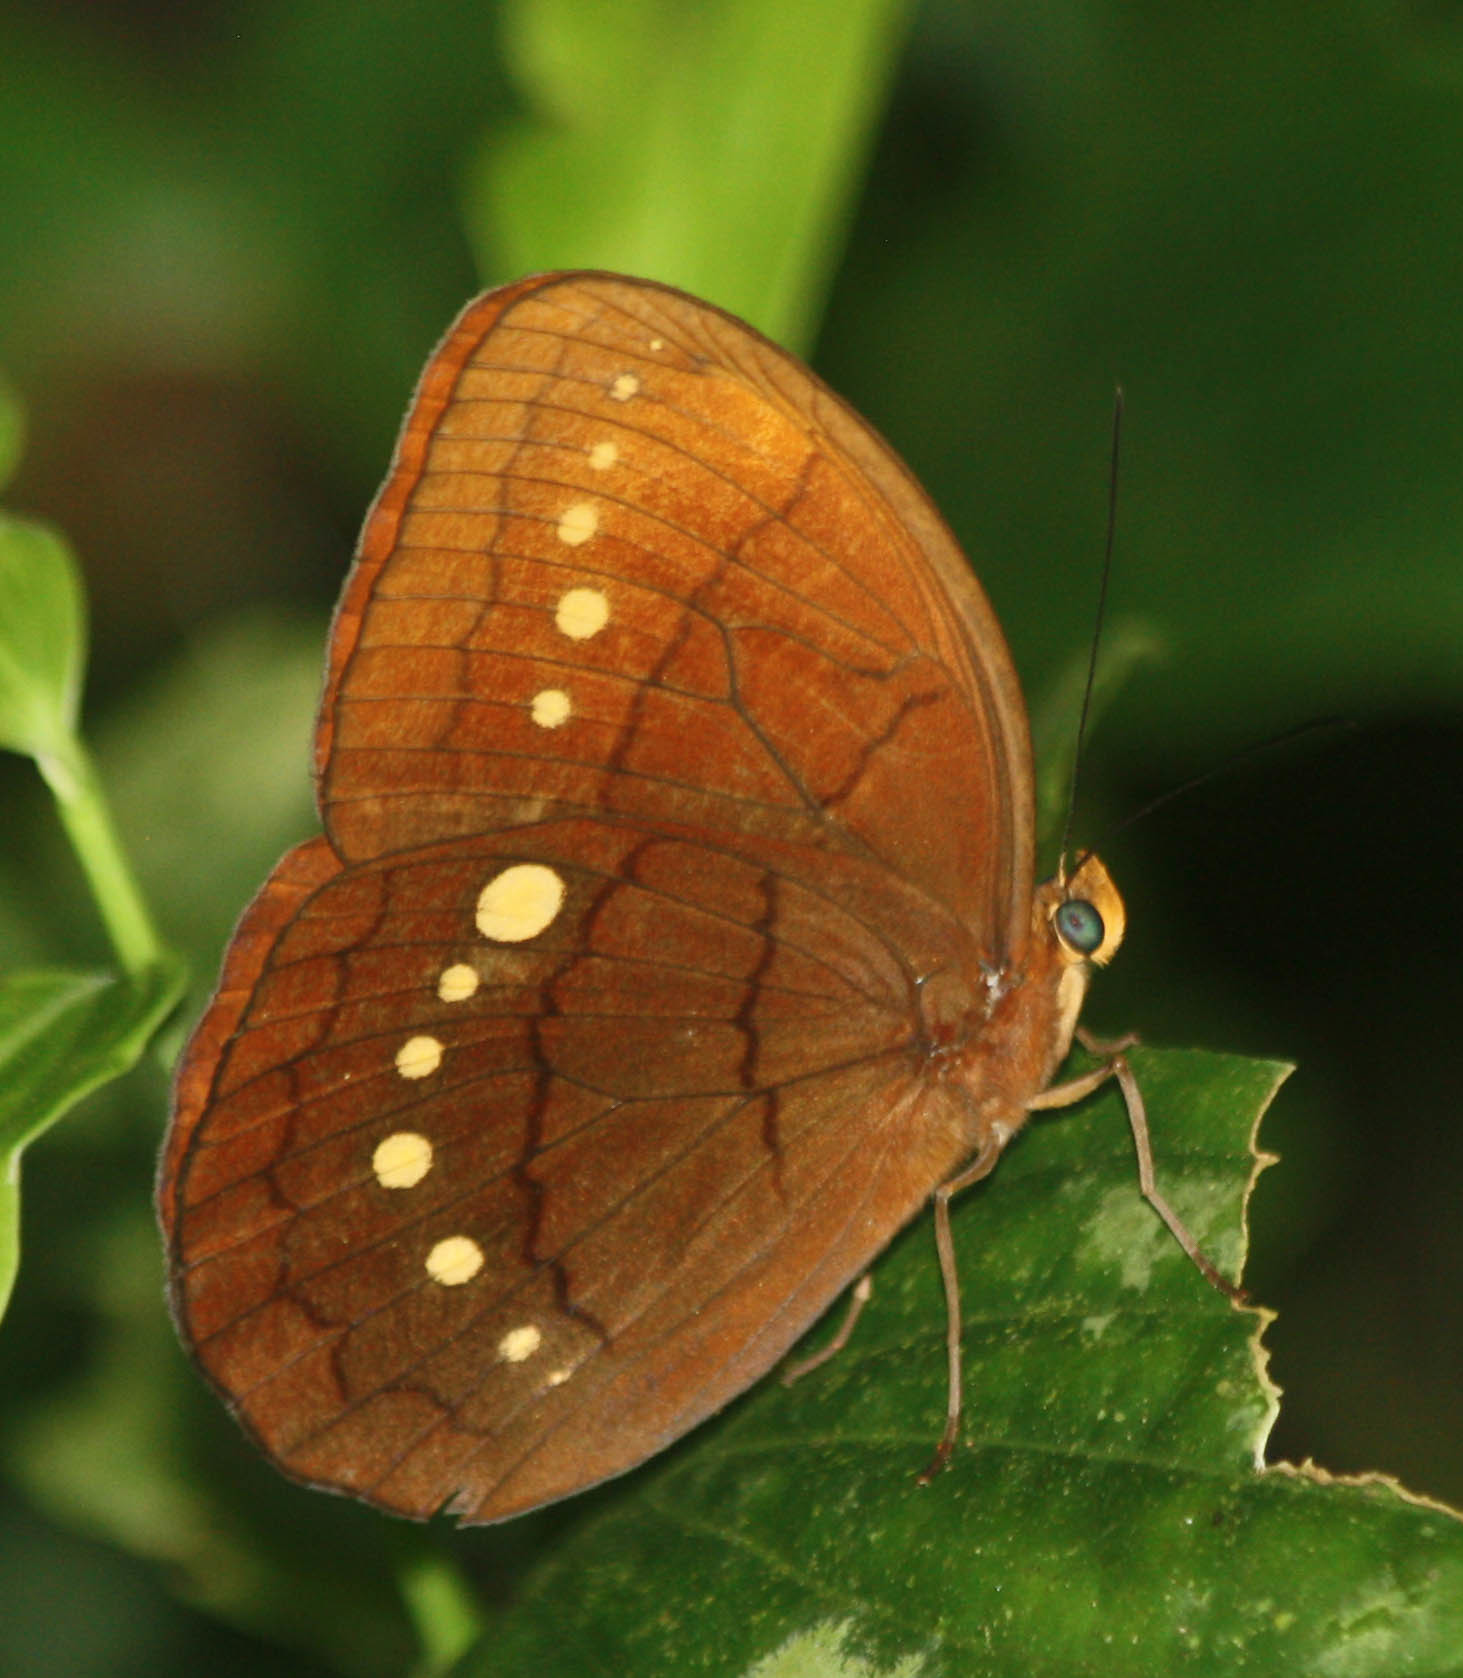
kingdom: Animalia
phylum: Arthropoda
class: Insecta
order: Lepidoptera
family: Nymphalidae
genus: Faunis
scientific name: Faunis eumeus
